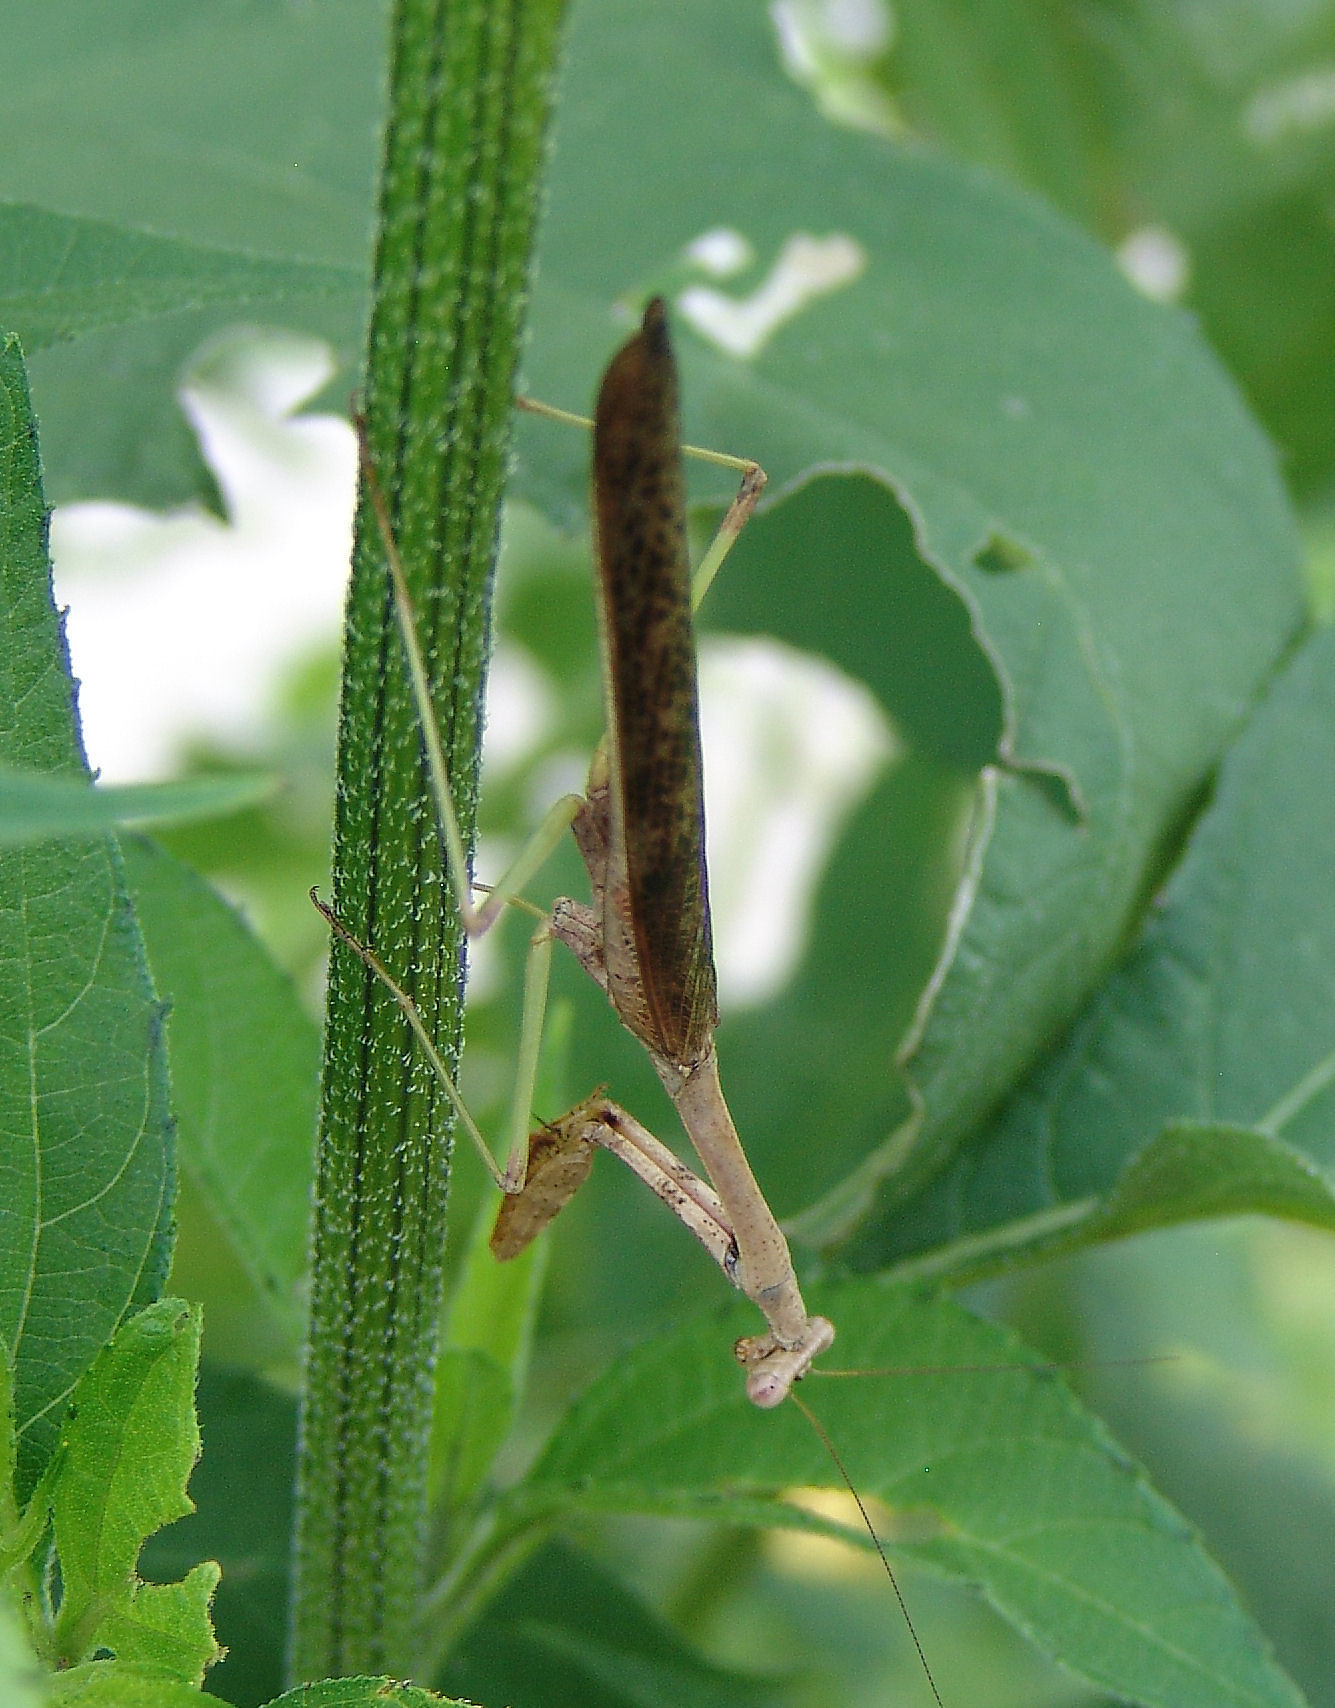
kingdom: Animalia
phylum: Arthropoda
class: Insecta
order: Mantodea
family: Mantidae
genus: Stagmomantis
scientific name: Stagmomantis carolina
